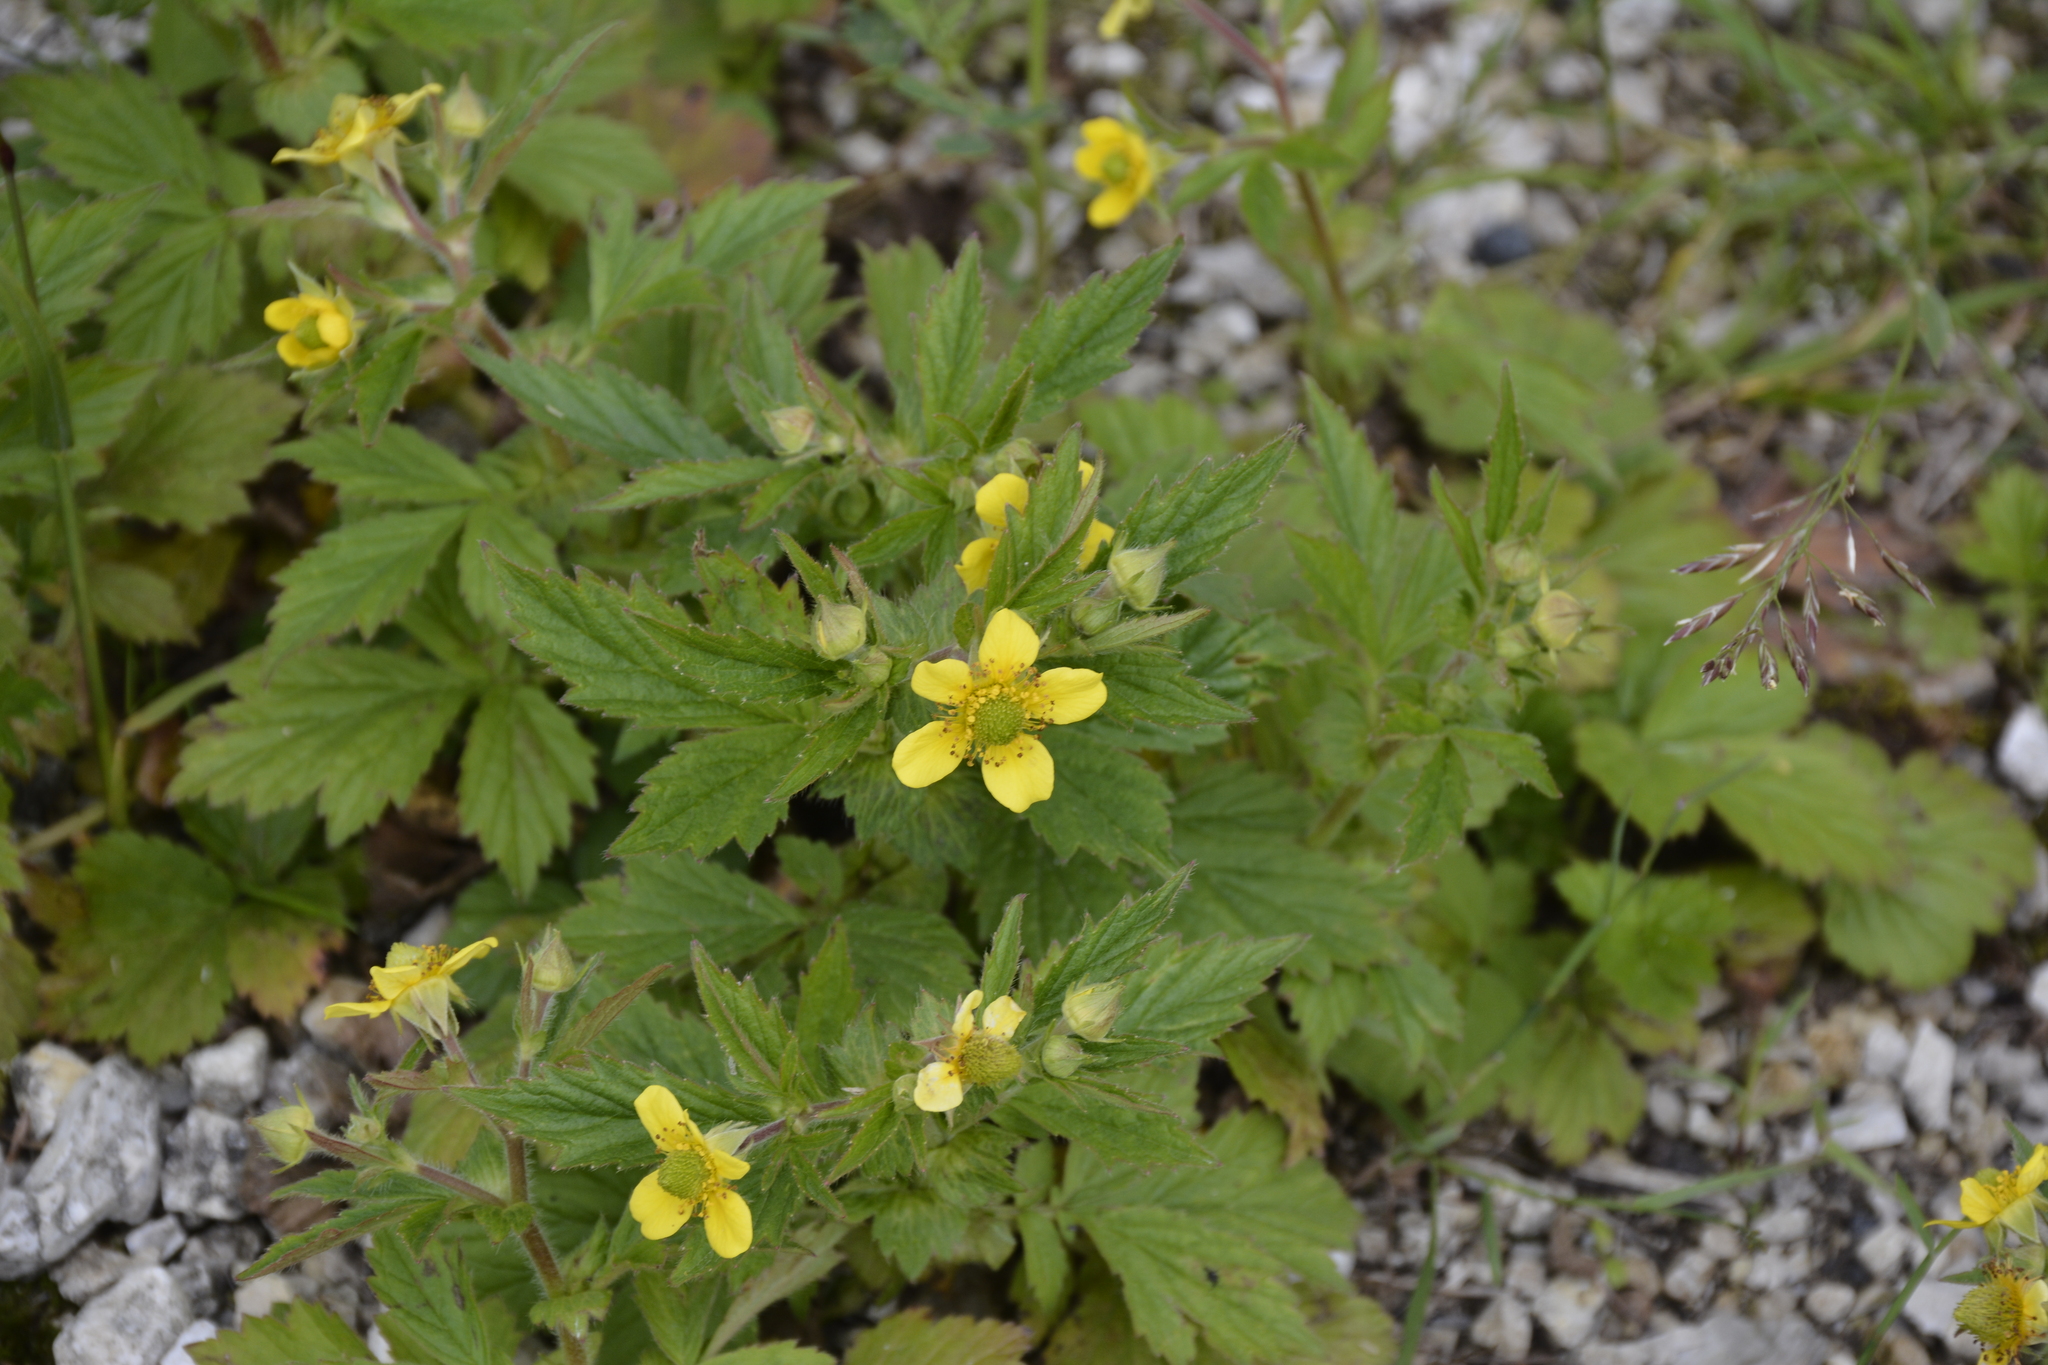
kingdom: Plantae
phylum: Tracheophyta
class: Magnoliopsida
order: Rosales
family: Rosaceae
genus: Geum
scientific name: Geum aleppicum
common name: Yellow avens
